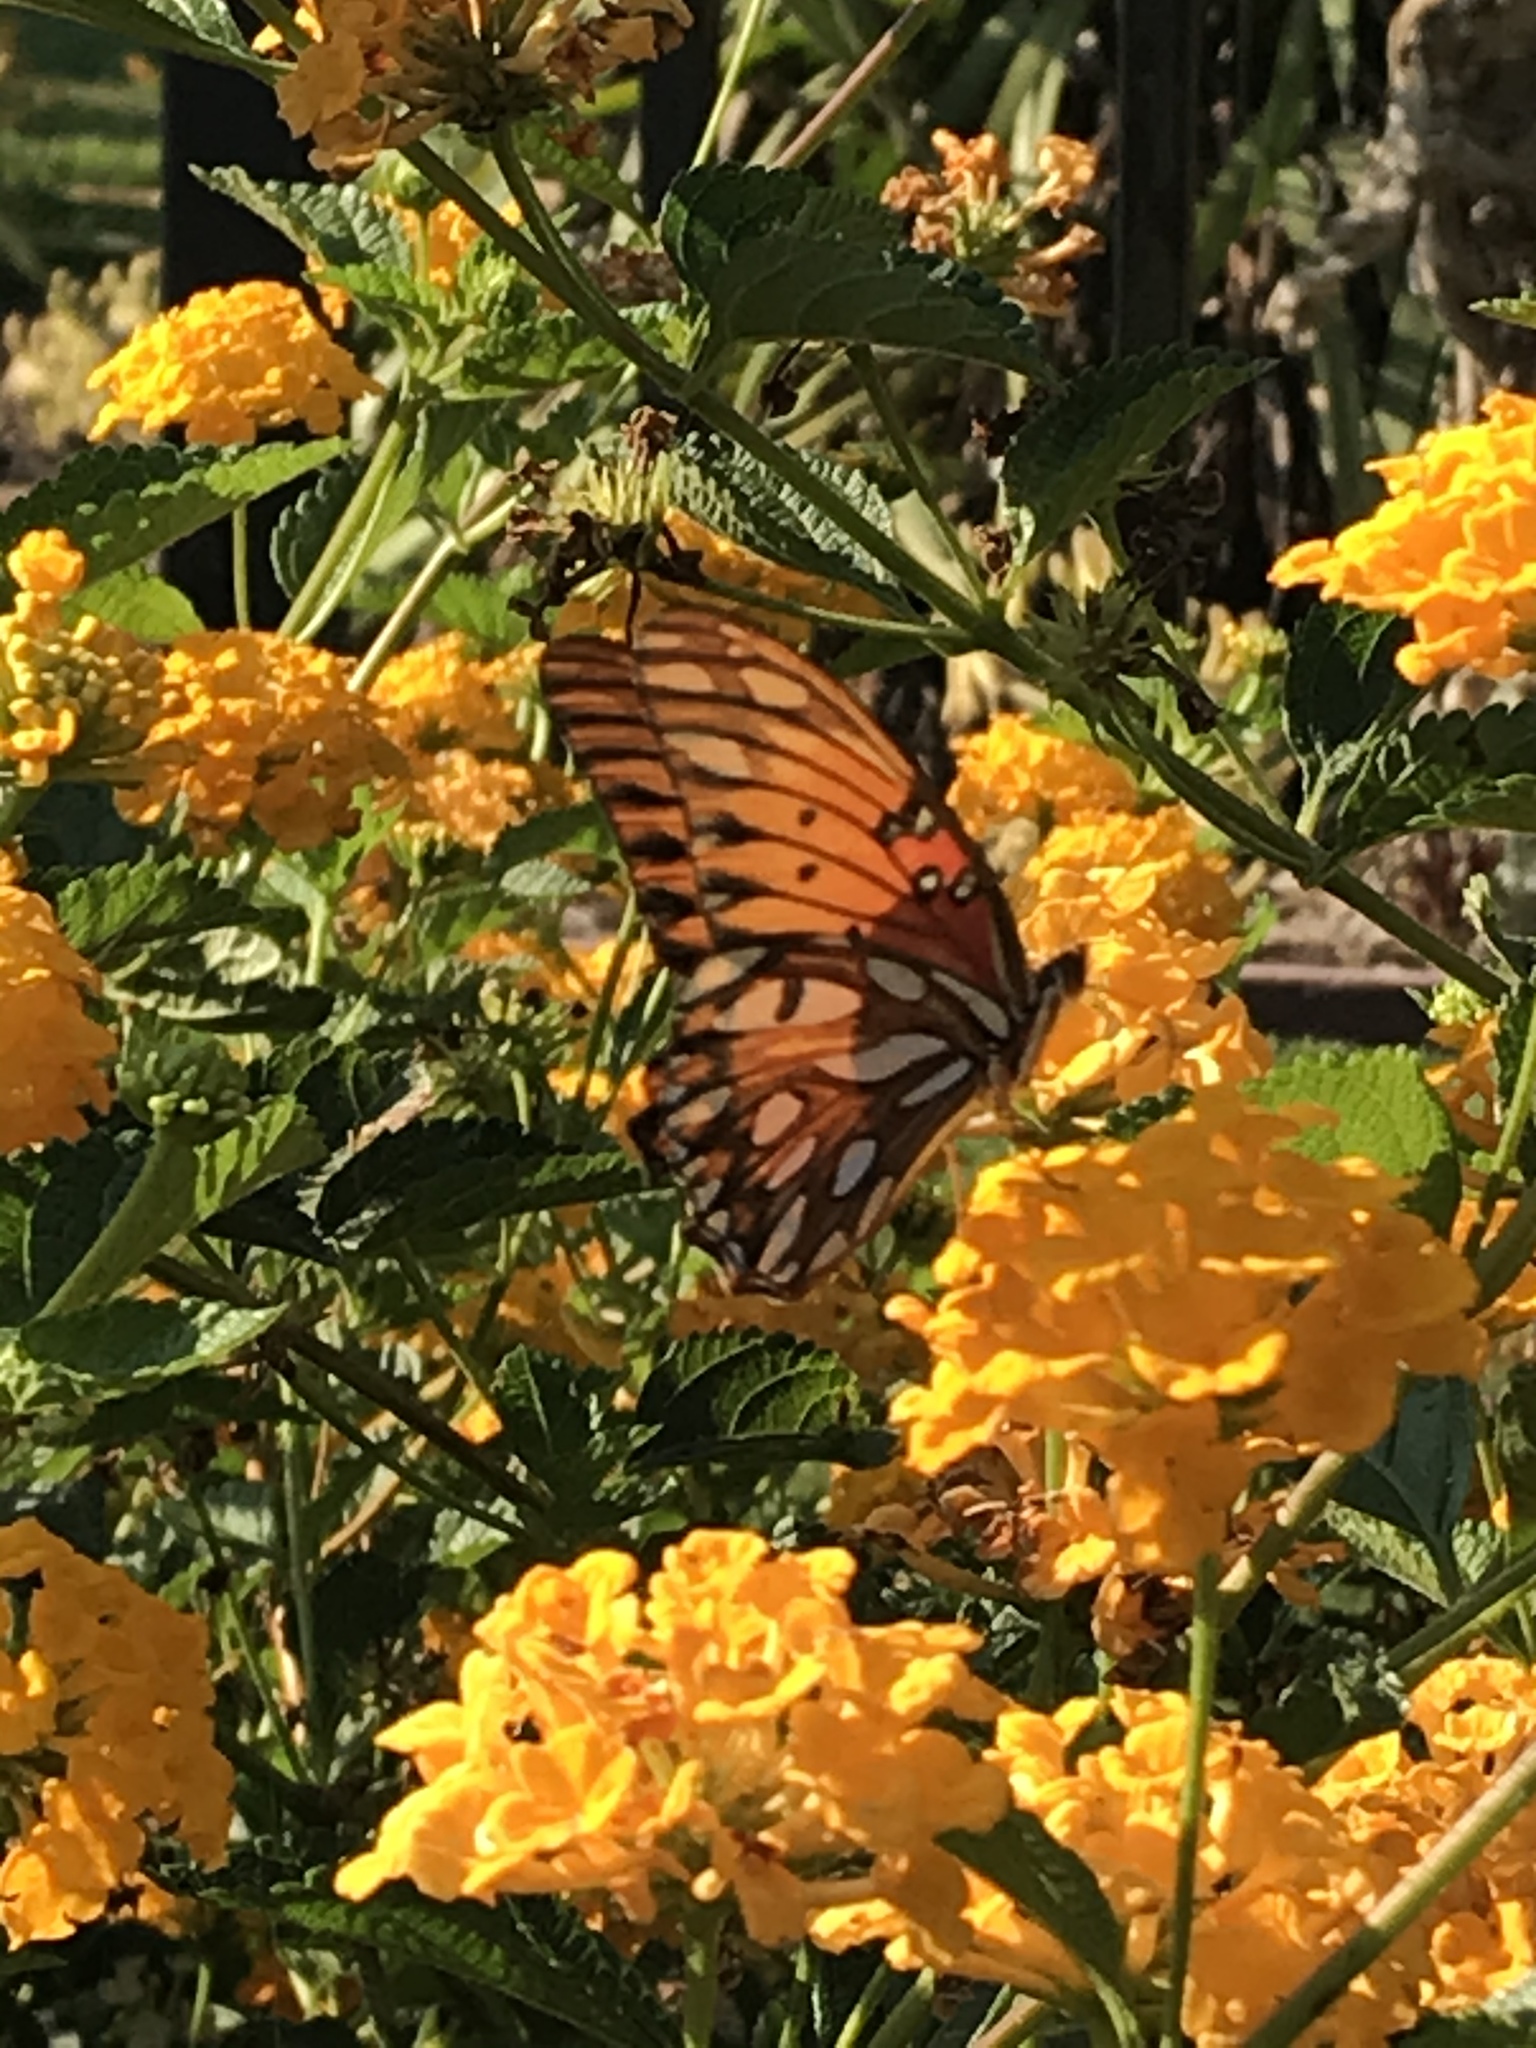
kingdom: Animalia
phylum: Arthropoda
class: Insecta
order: Lepidoptera
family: Nymphalidae
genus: Dione
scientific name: Dione vanillae
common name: Gulf fritillary
